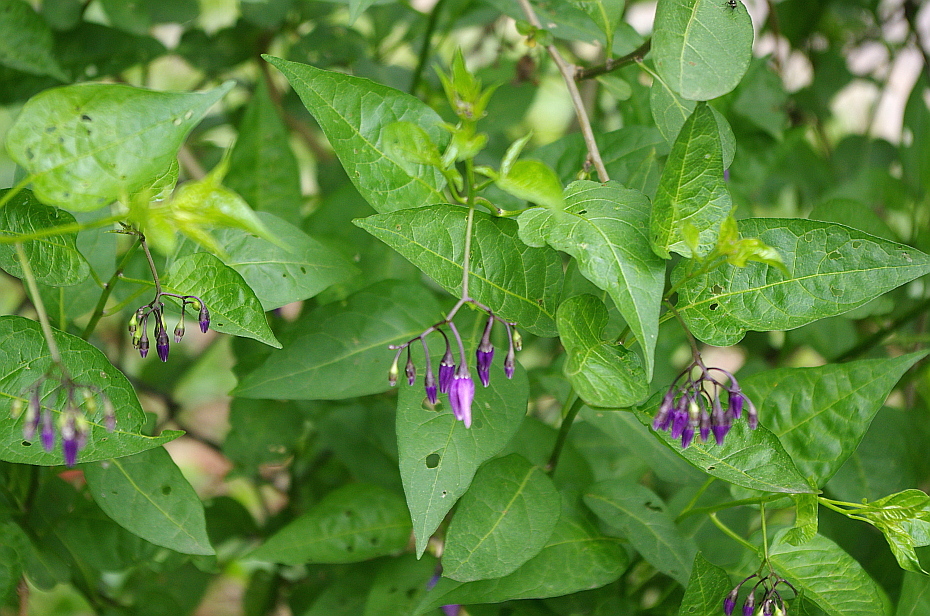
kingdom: Plantae
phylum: Tracheophyta
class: Magnoliopsida
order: Solanales
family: Solanaceae
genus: Solanum
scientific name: Solanum dulcamara
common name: Climbing nightshade
